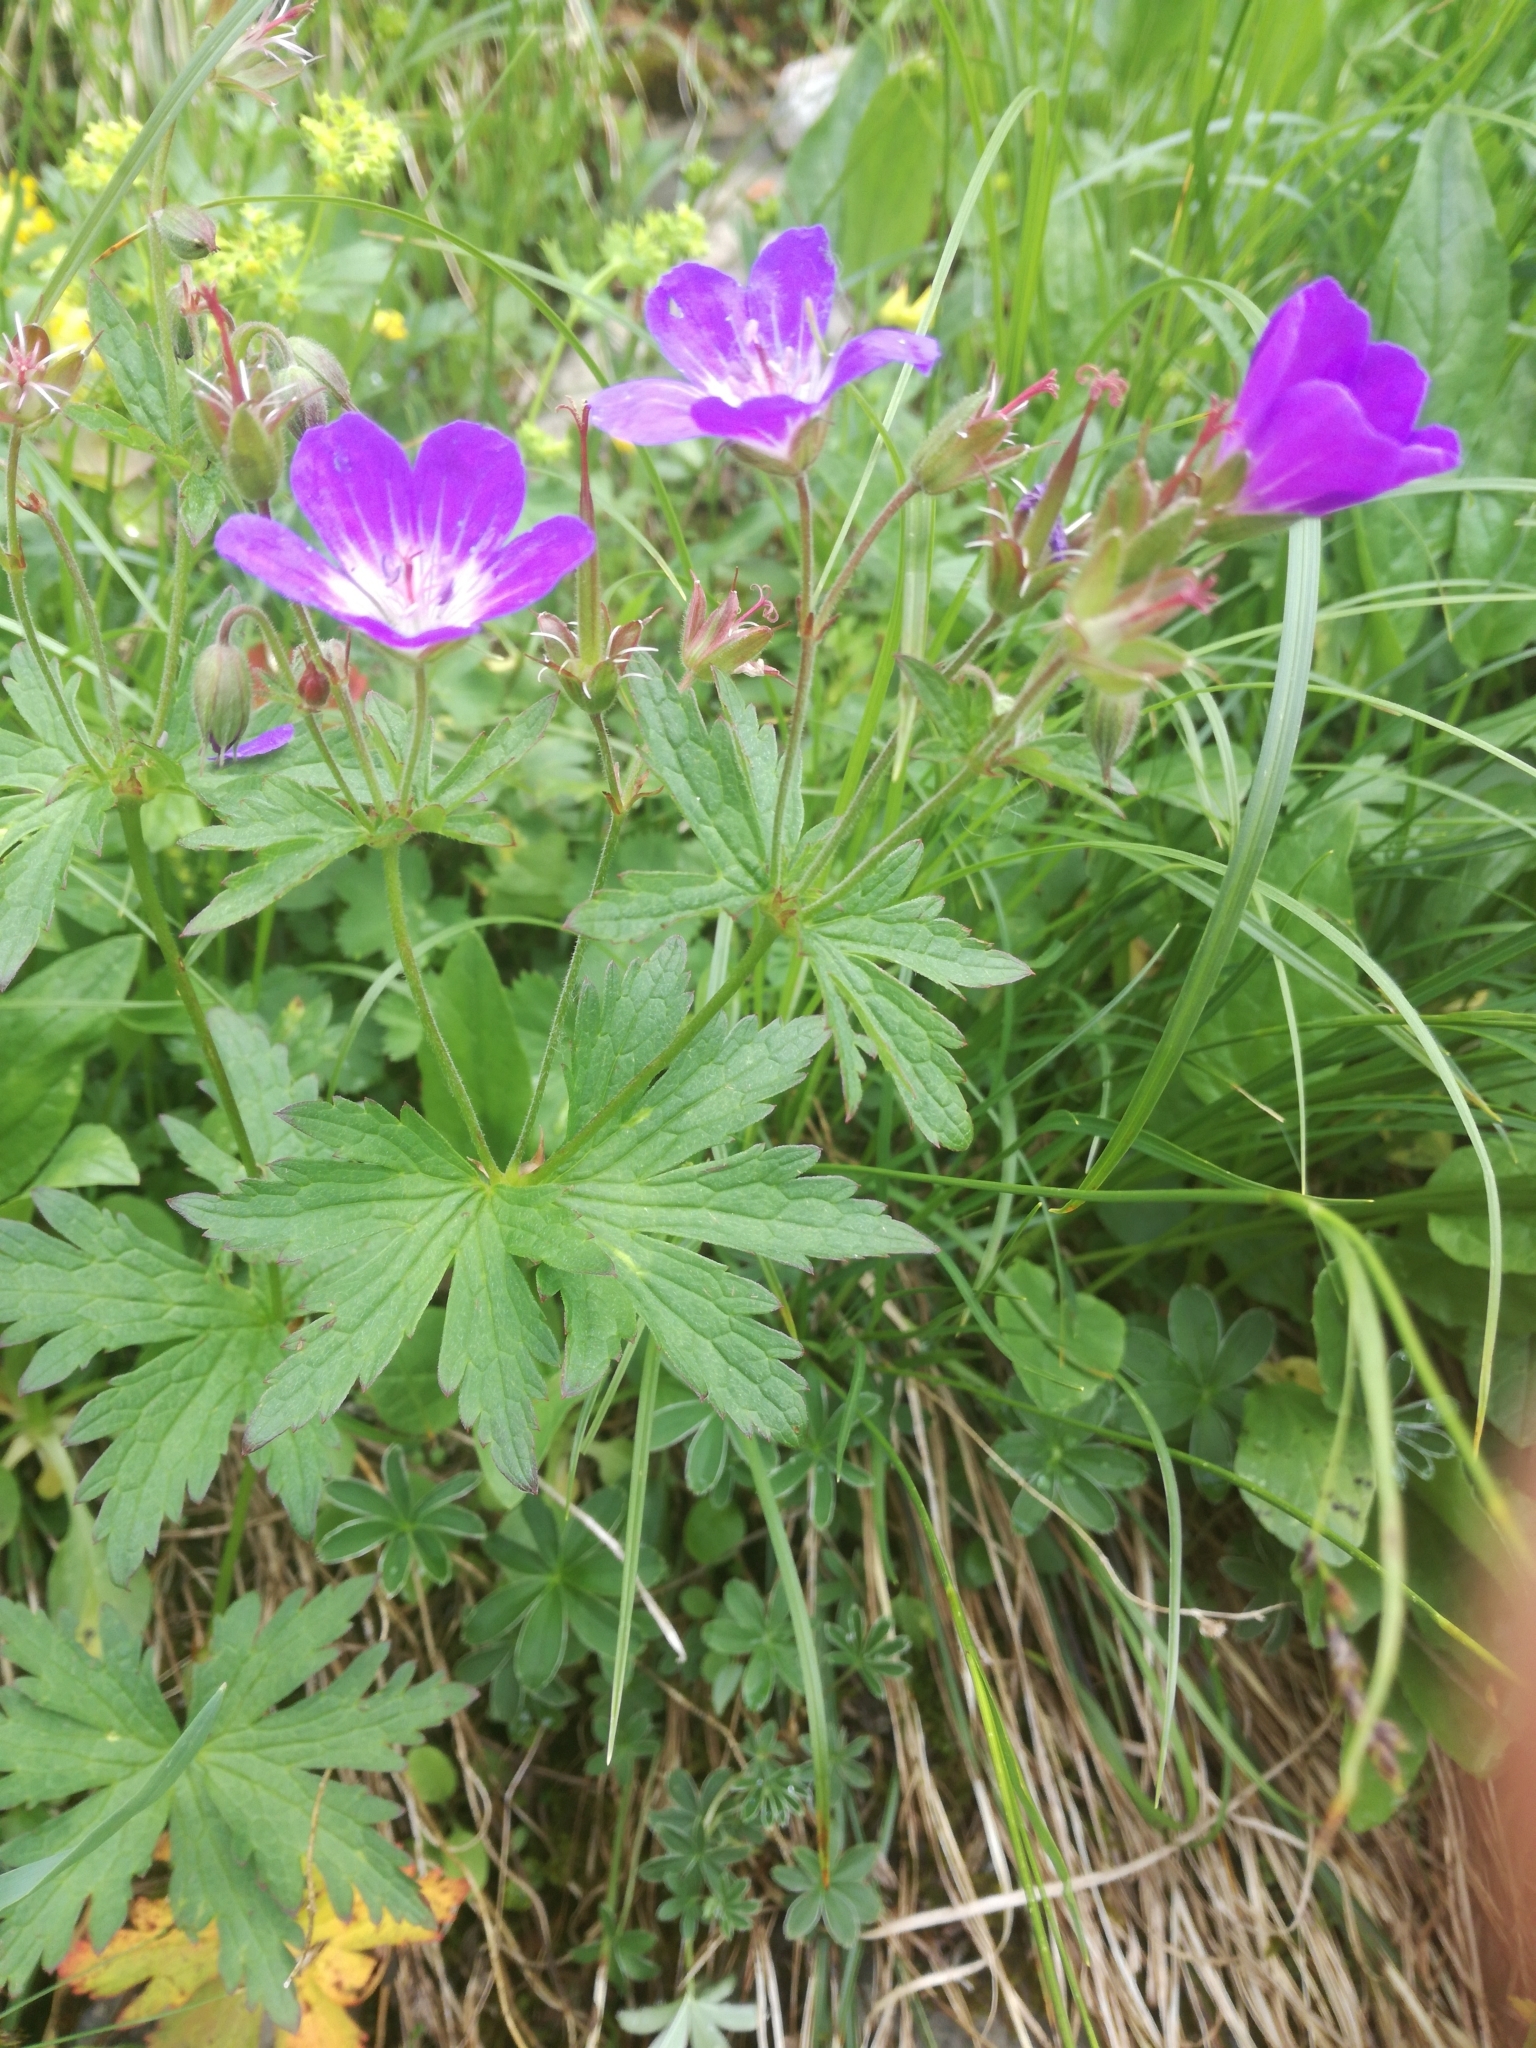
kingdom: Plantae
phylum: Tracheophyta
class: Magnoliopsida
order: Geraniales
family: Geraniaceae
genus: Geranium
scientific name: Geranium sylvaticum
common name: Wood crane's-bill
